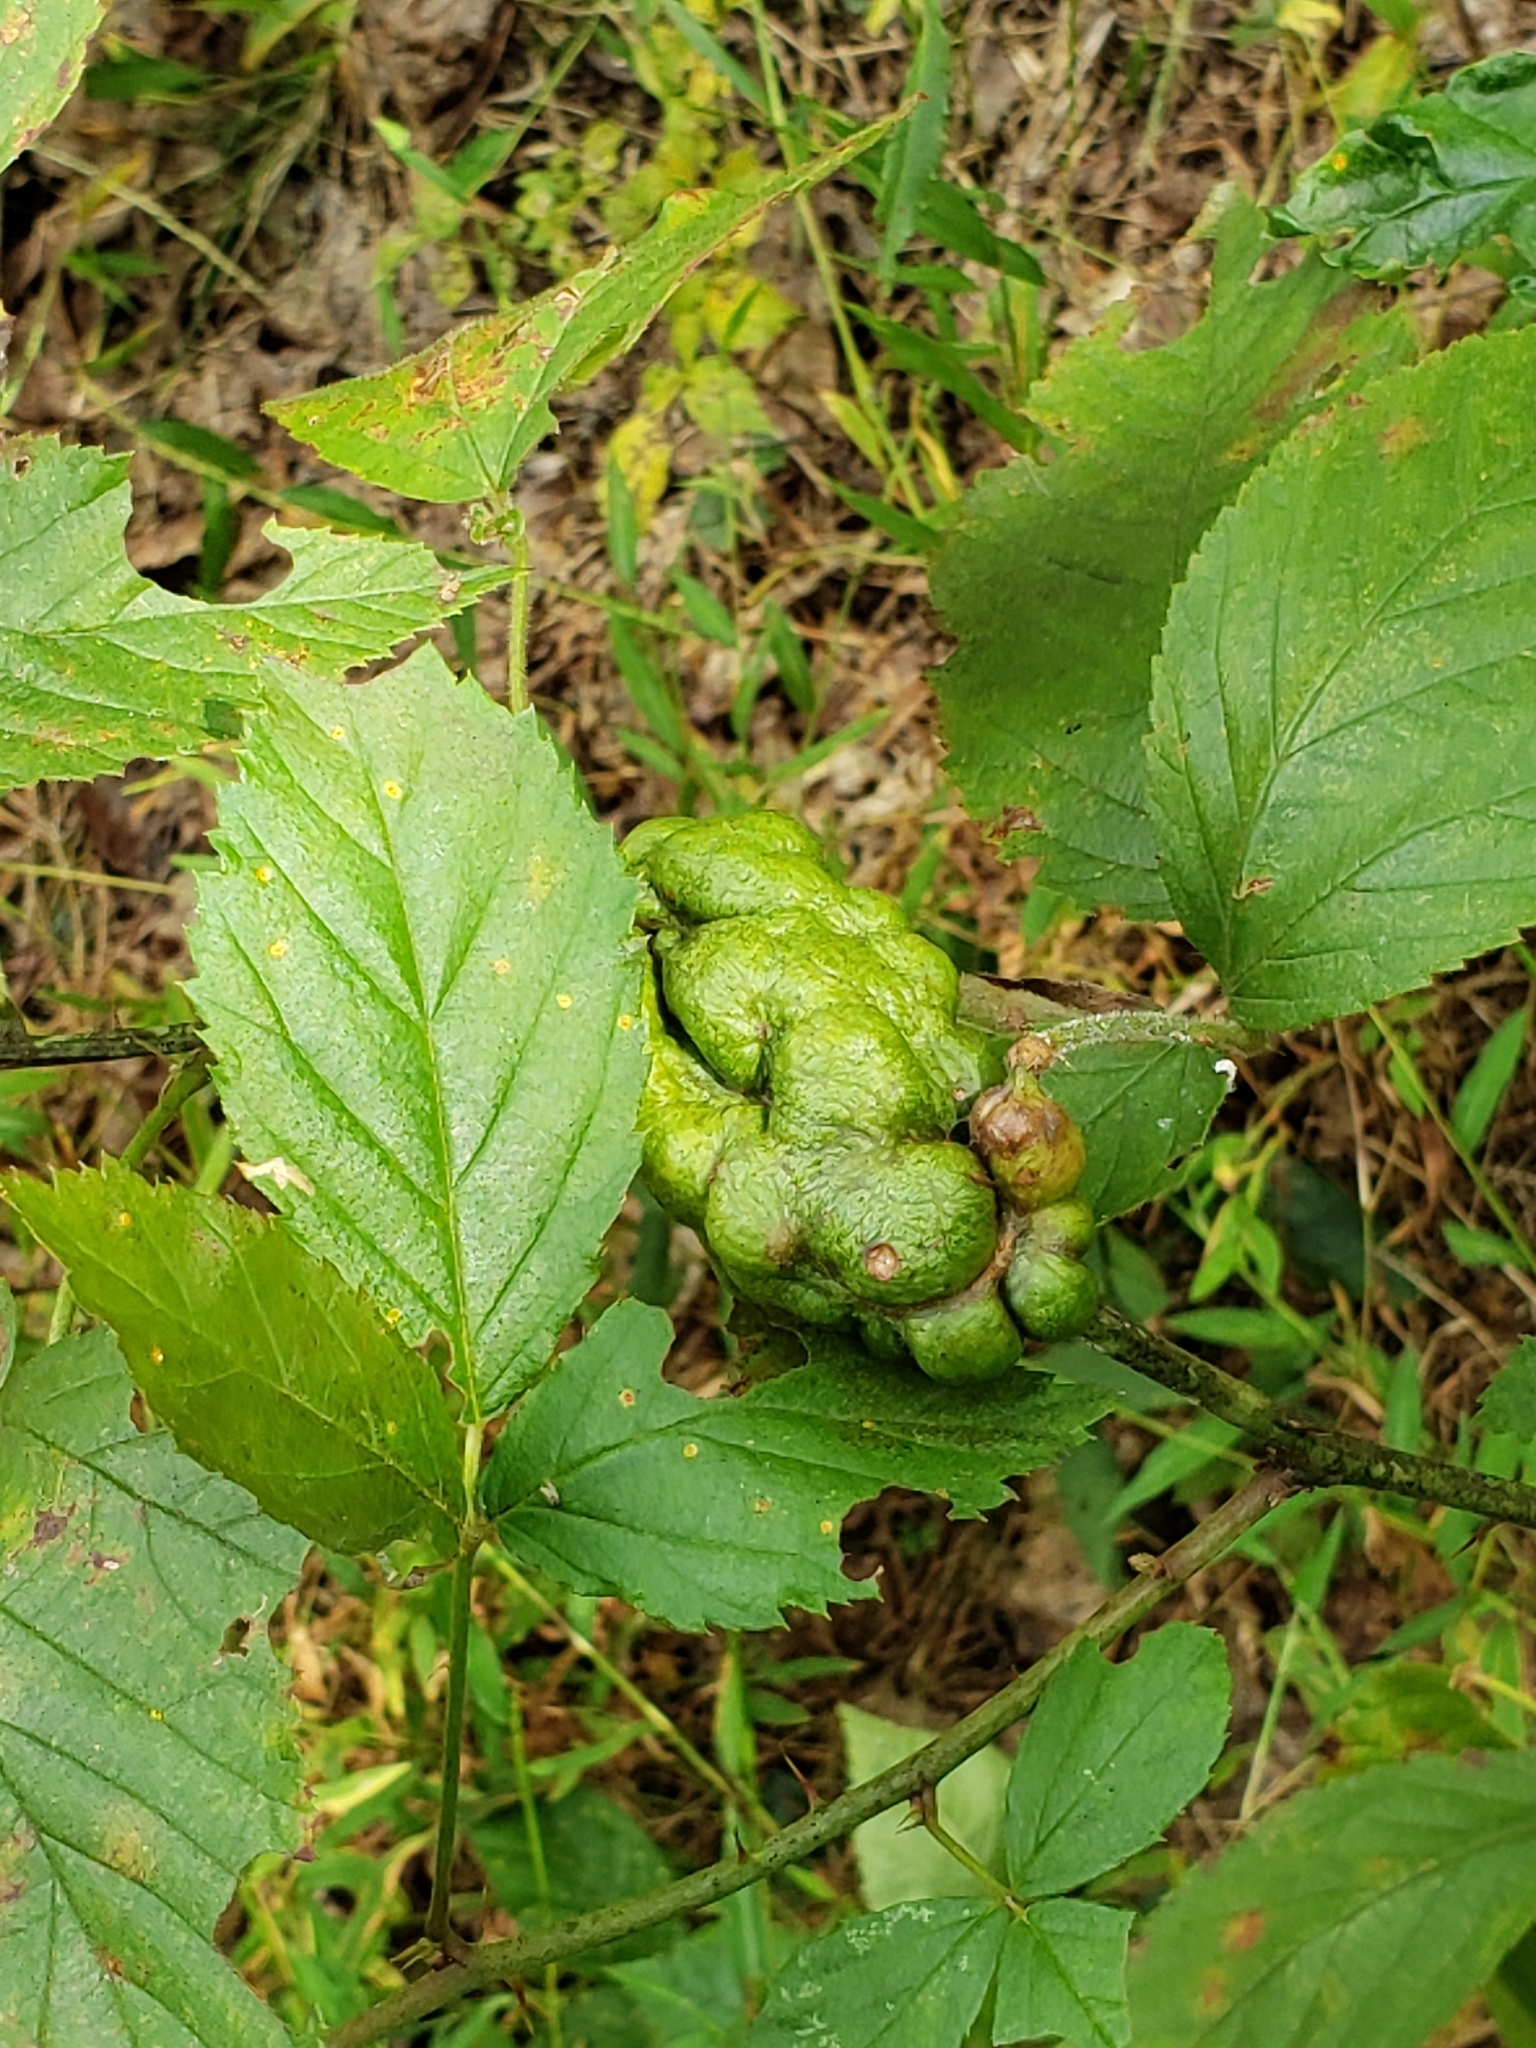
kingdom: Animalia
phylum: Arthropoda
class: Insecta
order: Hymenoptera
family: Cynipidae
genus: Diastrophus
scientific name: Diastrophus
